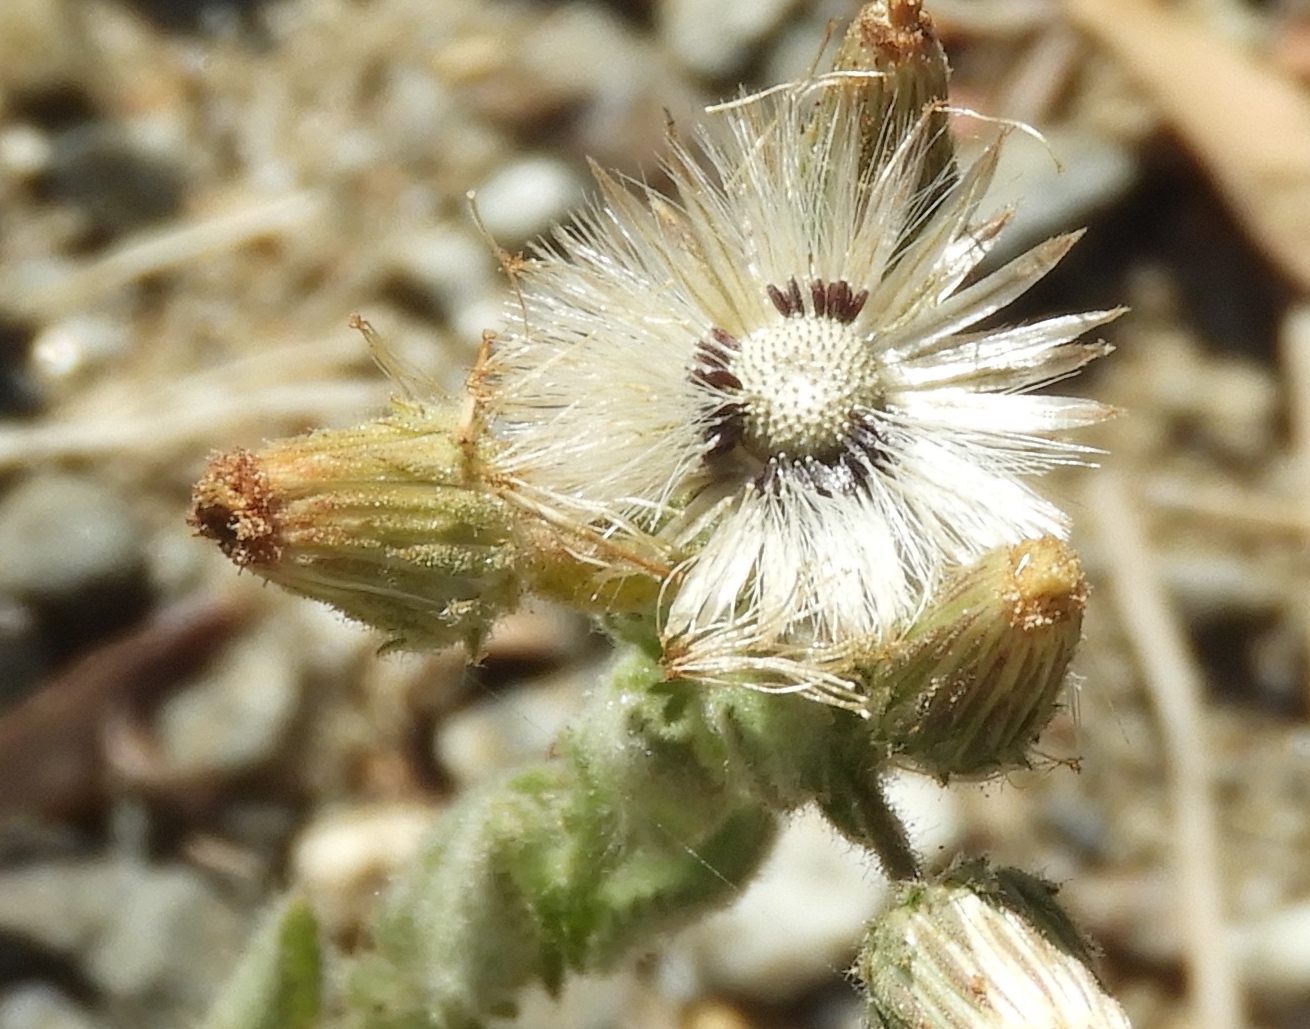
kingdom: Plantae
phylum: Tracheophyta
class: Magnoliopsida
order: Asterales
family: Asteraceae
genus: Pseudoconyza
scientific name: Pseudoconyza viscosa
